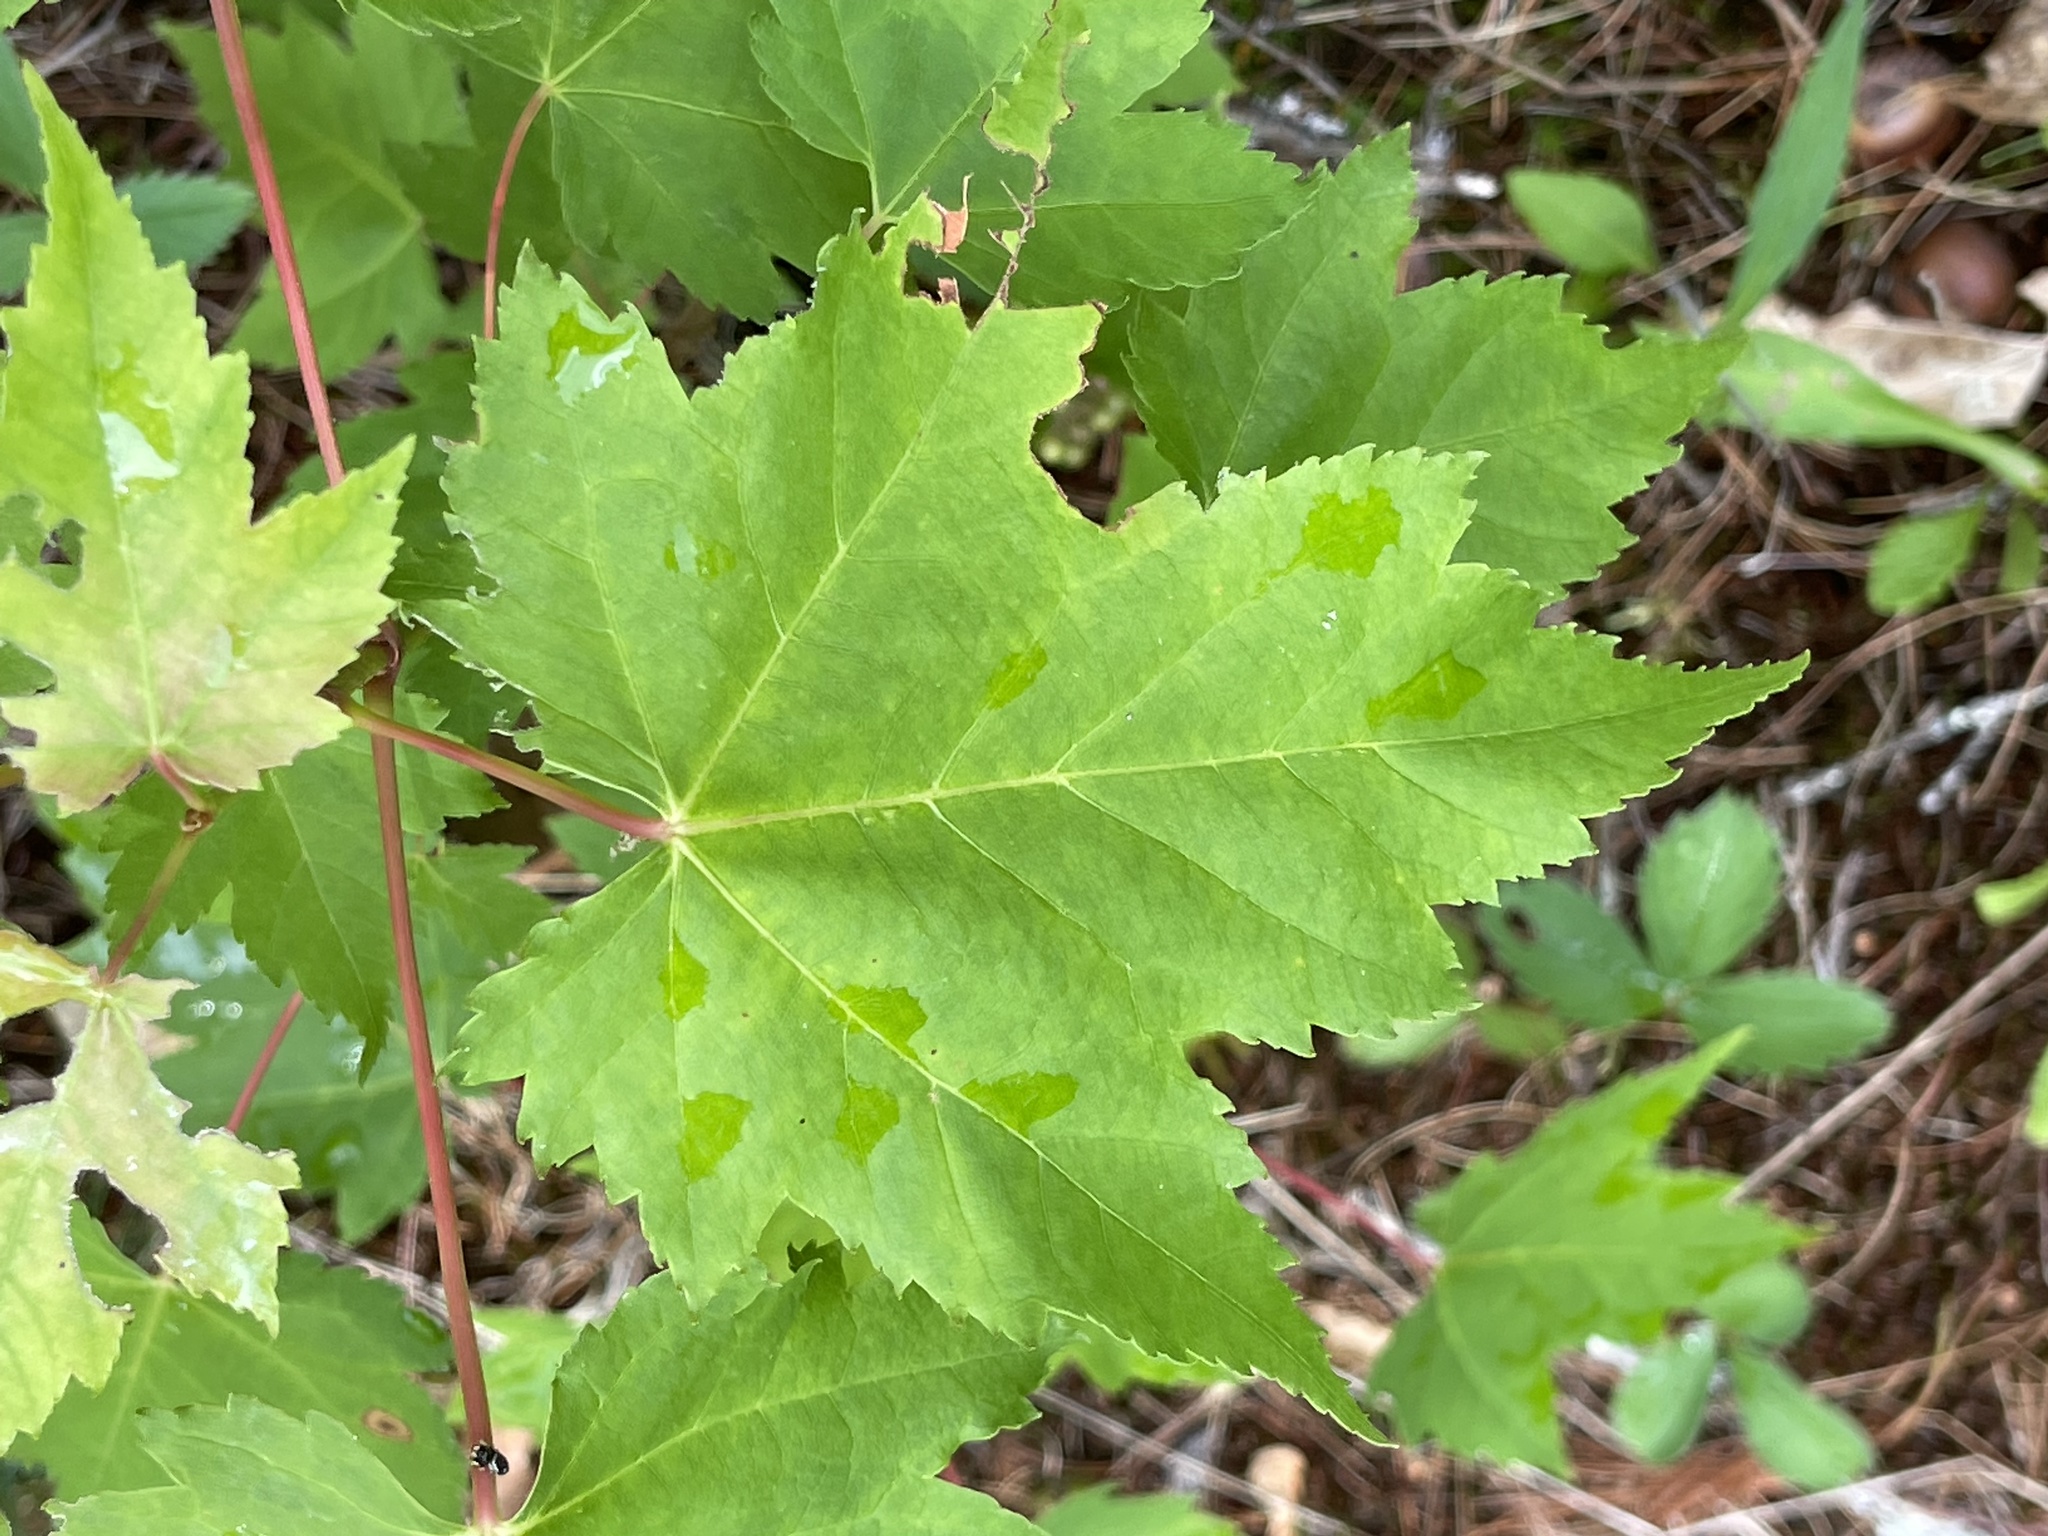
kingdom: Plantae
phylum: Tracheophyta
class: Magnoliopsida
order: Sapindales
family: Sapindaceae
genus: Acer
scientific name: Acer rubrum
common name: Red maple
